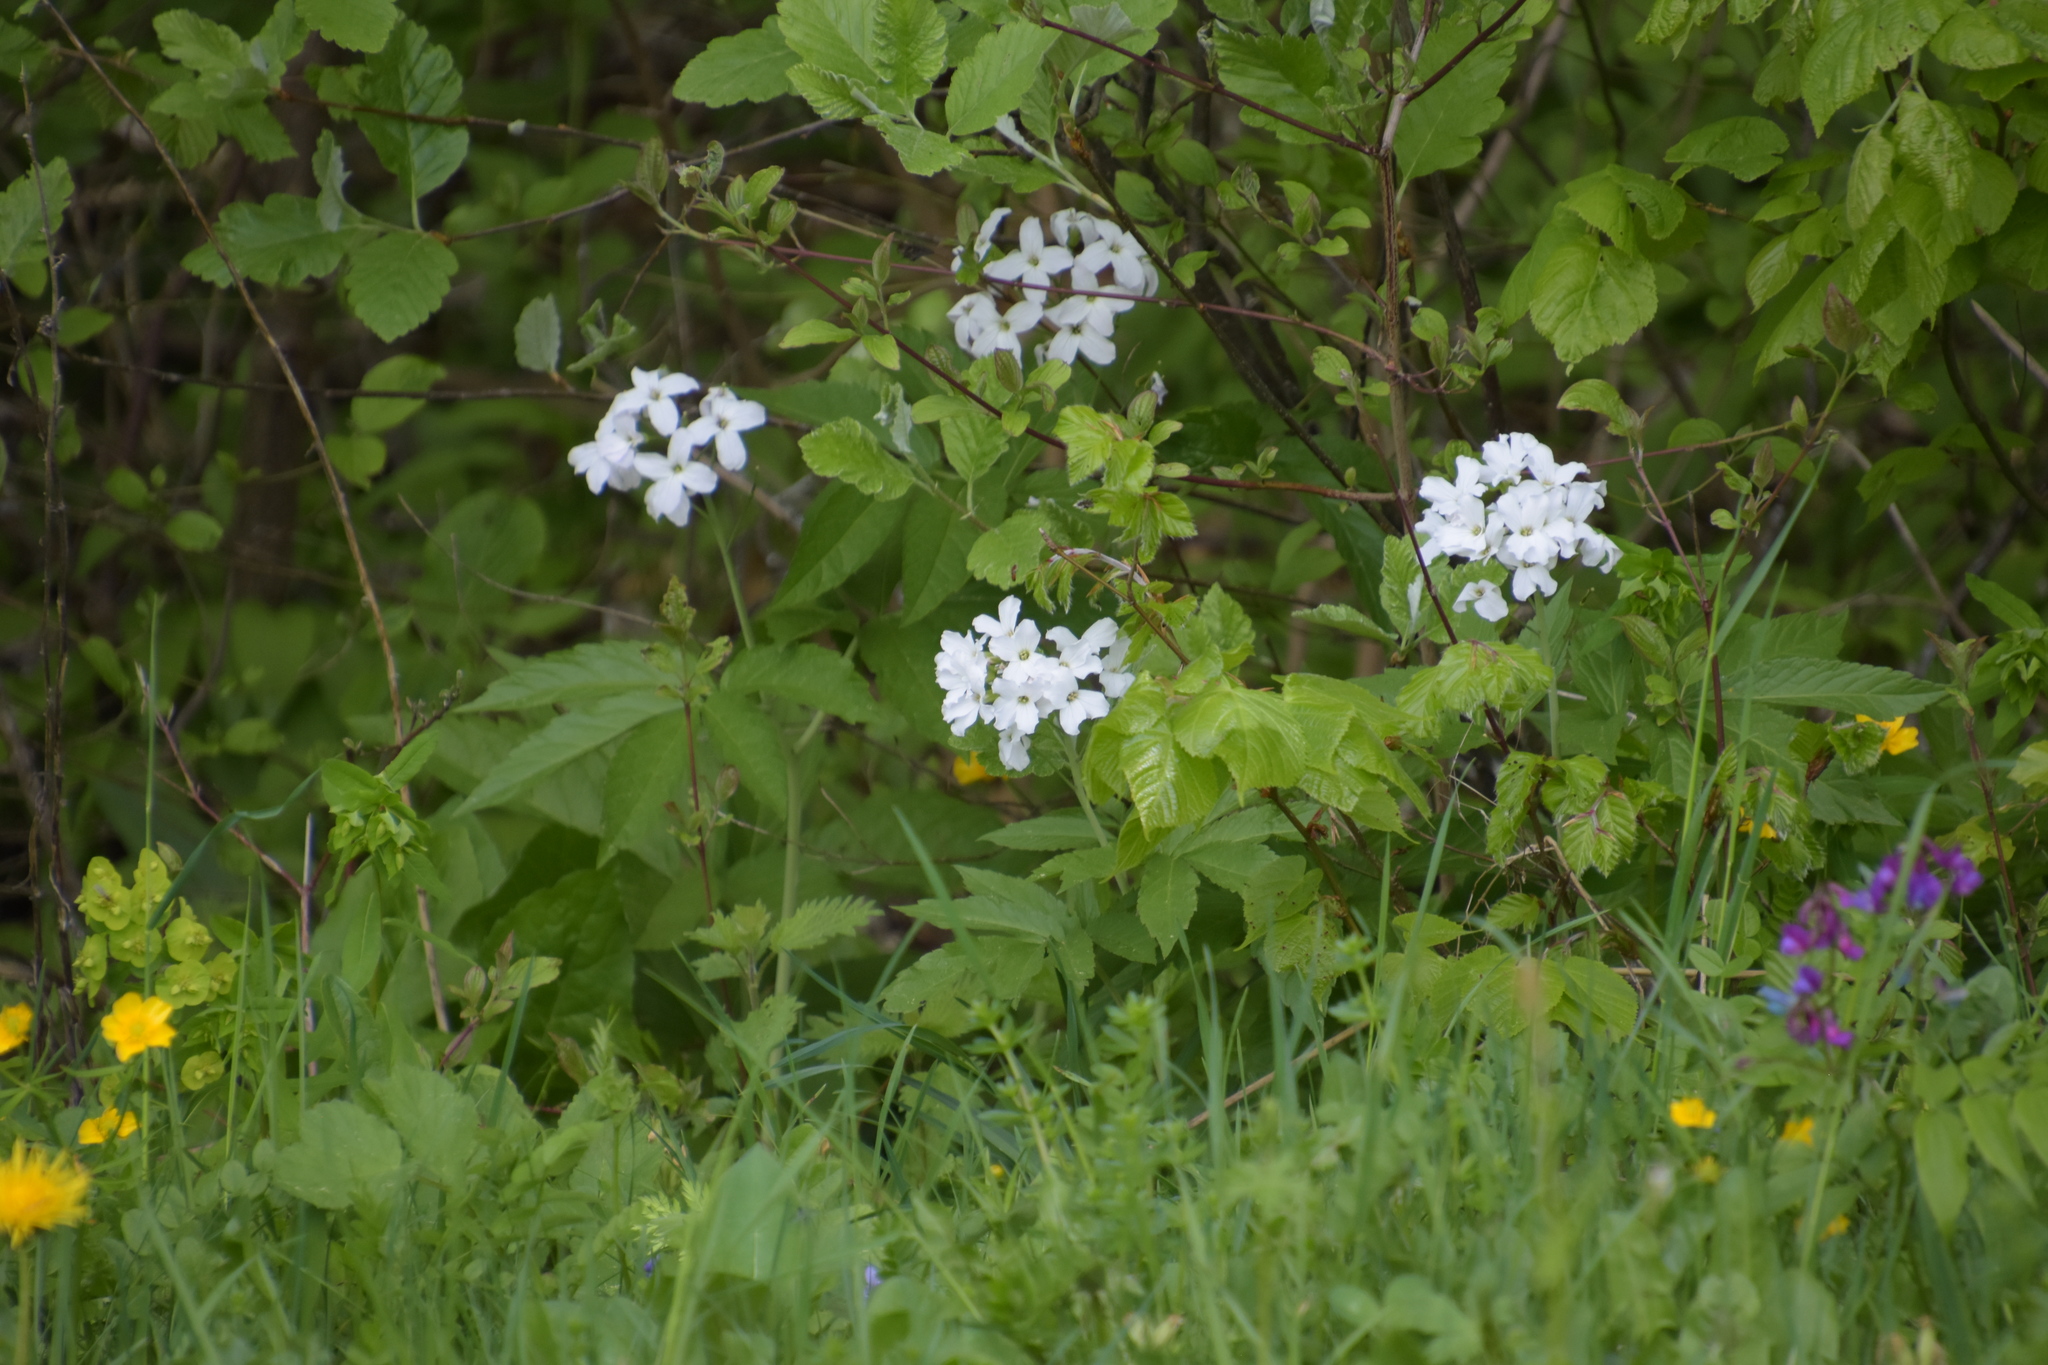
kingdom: Plantae
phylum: Tracheophyta
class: Magnoliopsida
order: Brassicales
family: Brassicaceae
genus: Cardamine
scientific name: Cardamine heptaphylla
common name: Pinnate coralroot
